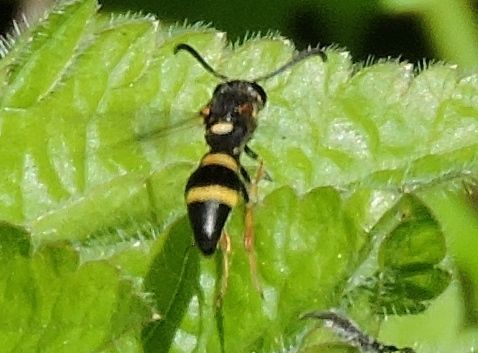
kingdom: Animalia
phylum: Arthropoda
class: Insecta
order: Hymenoptera
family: Eumenidae
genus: Parancistrocerus
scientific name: Parancistrocerus perennis
